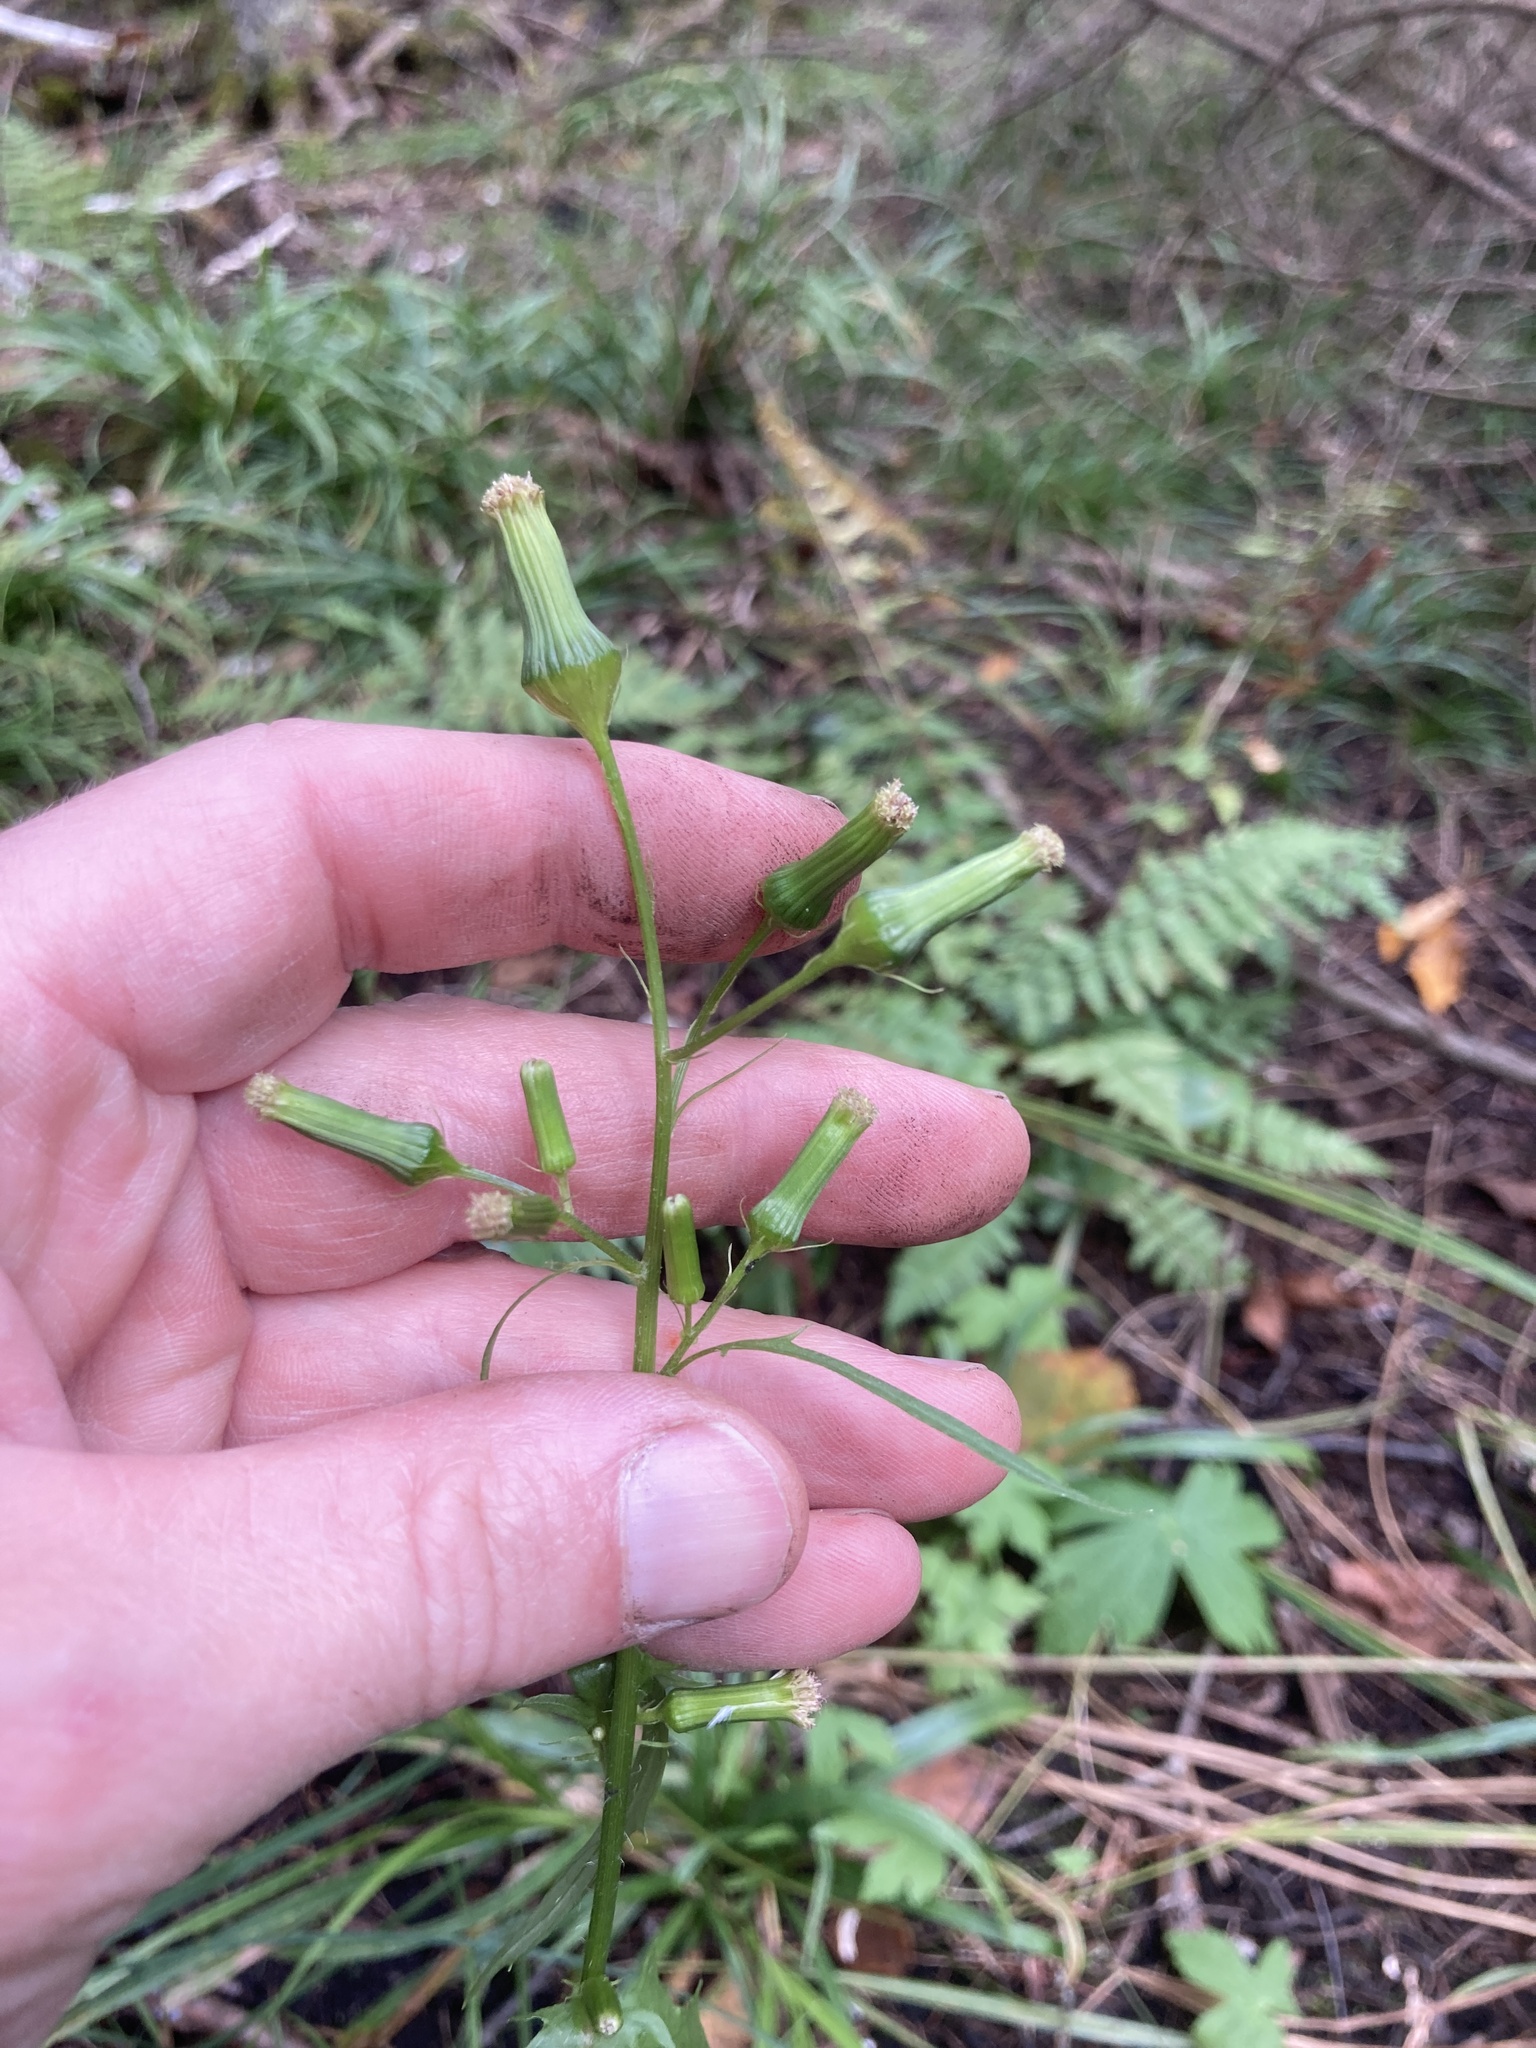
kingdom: Plantae
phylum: Tracheophyta
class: Magnoliopsida
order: Asterales
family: Asteraceae
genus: Erechtites
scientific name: Erechtites hieraciifolius
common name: American burnweed
